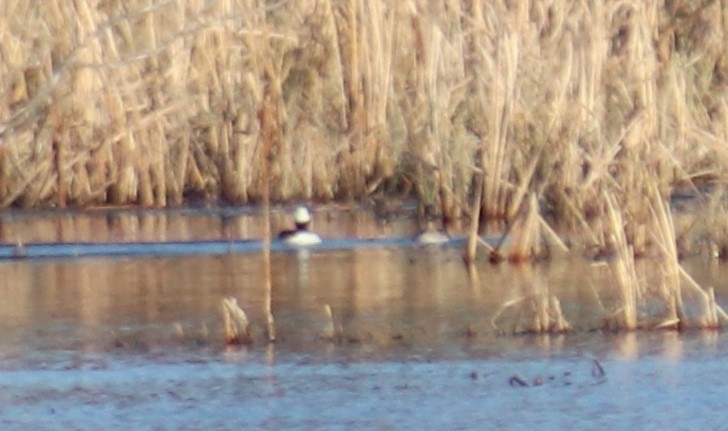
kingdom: Animalia
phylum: Chordata
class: Aves
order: Anseriformes
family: Anatidae
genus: Bucephala
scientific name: Bucephala albeola
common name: Bufflehead
